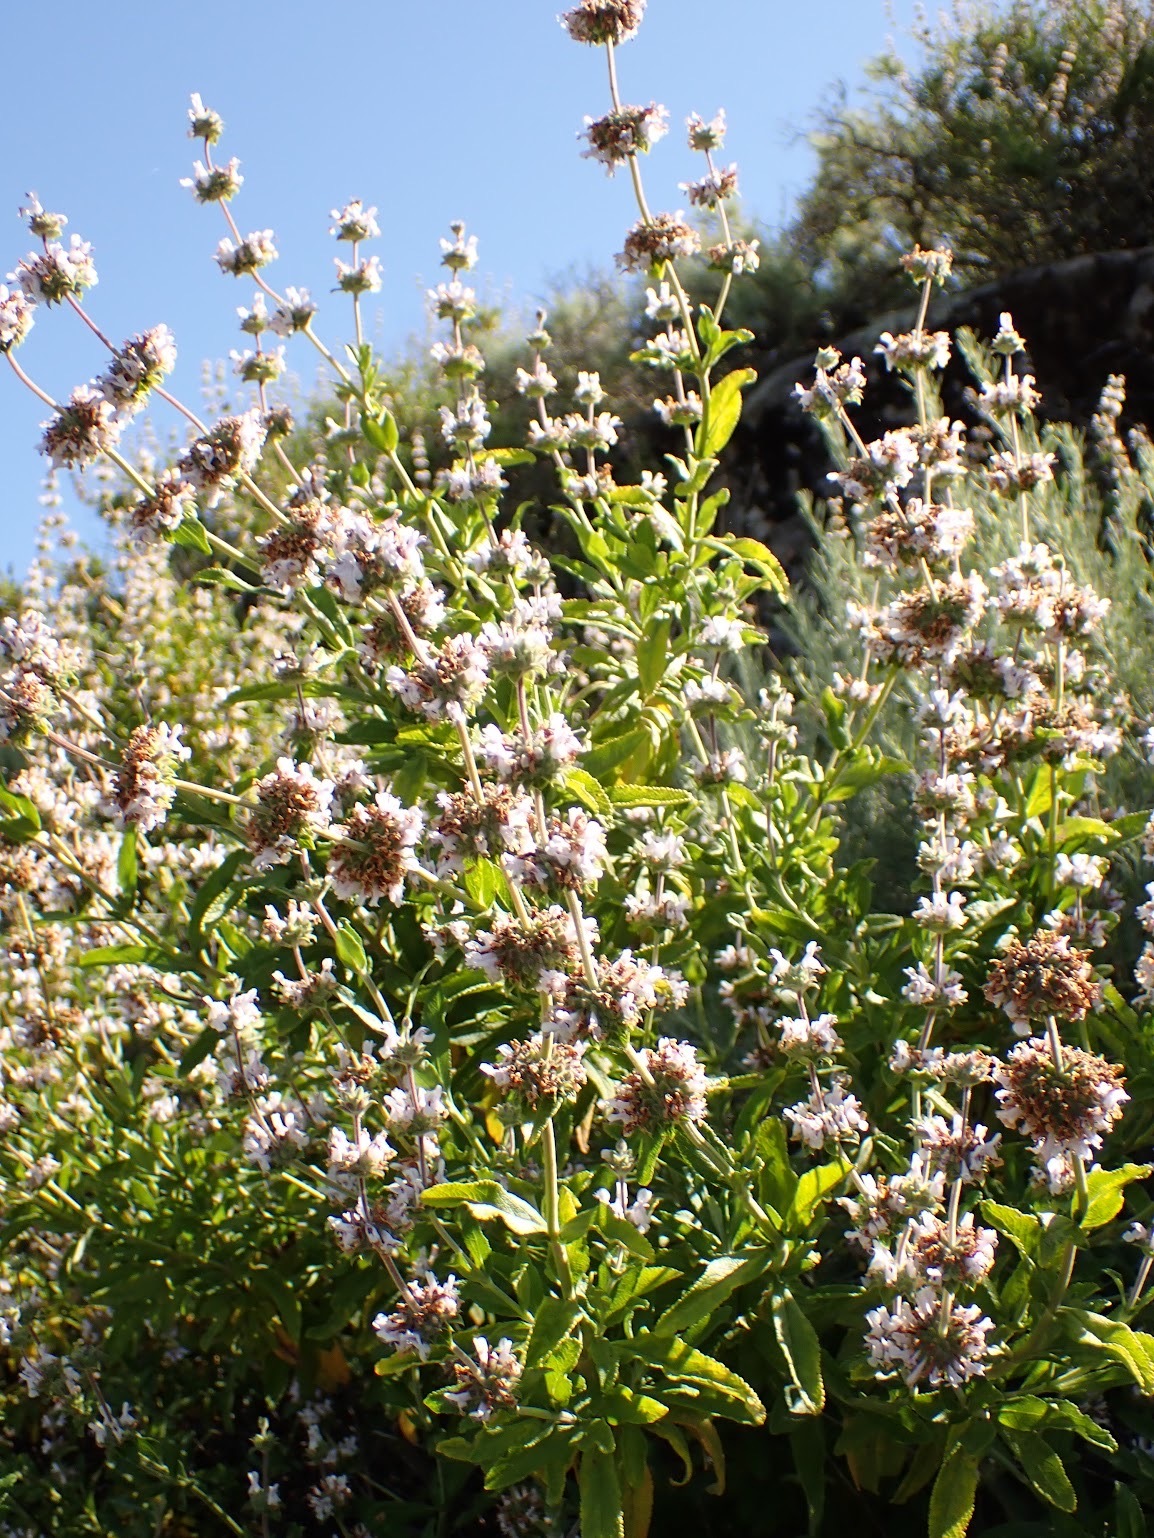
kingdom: Plantae
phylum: Tracheophyta
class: Magnoliopsida
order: Lamiales
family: Lamiaceae
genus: Salvia
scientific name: Salvia mellifera
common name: Black sage
